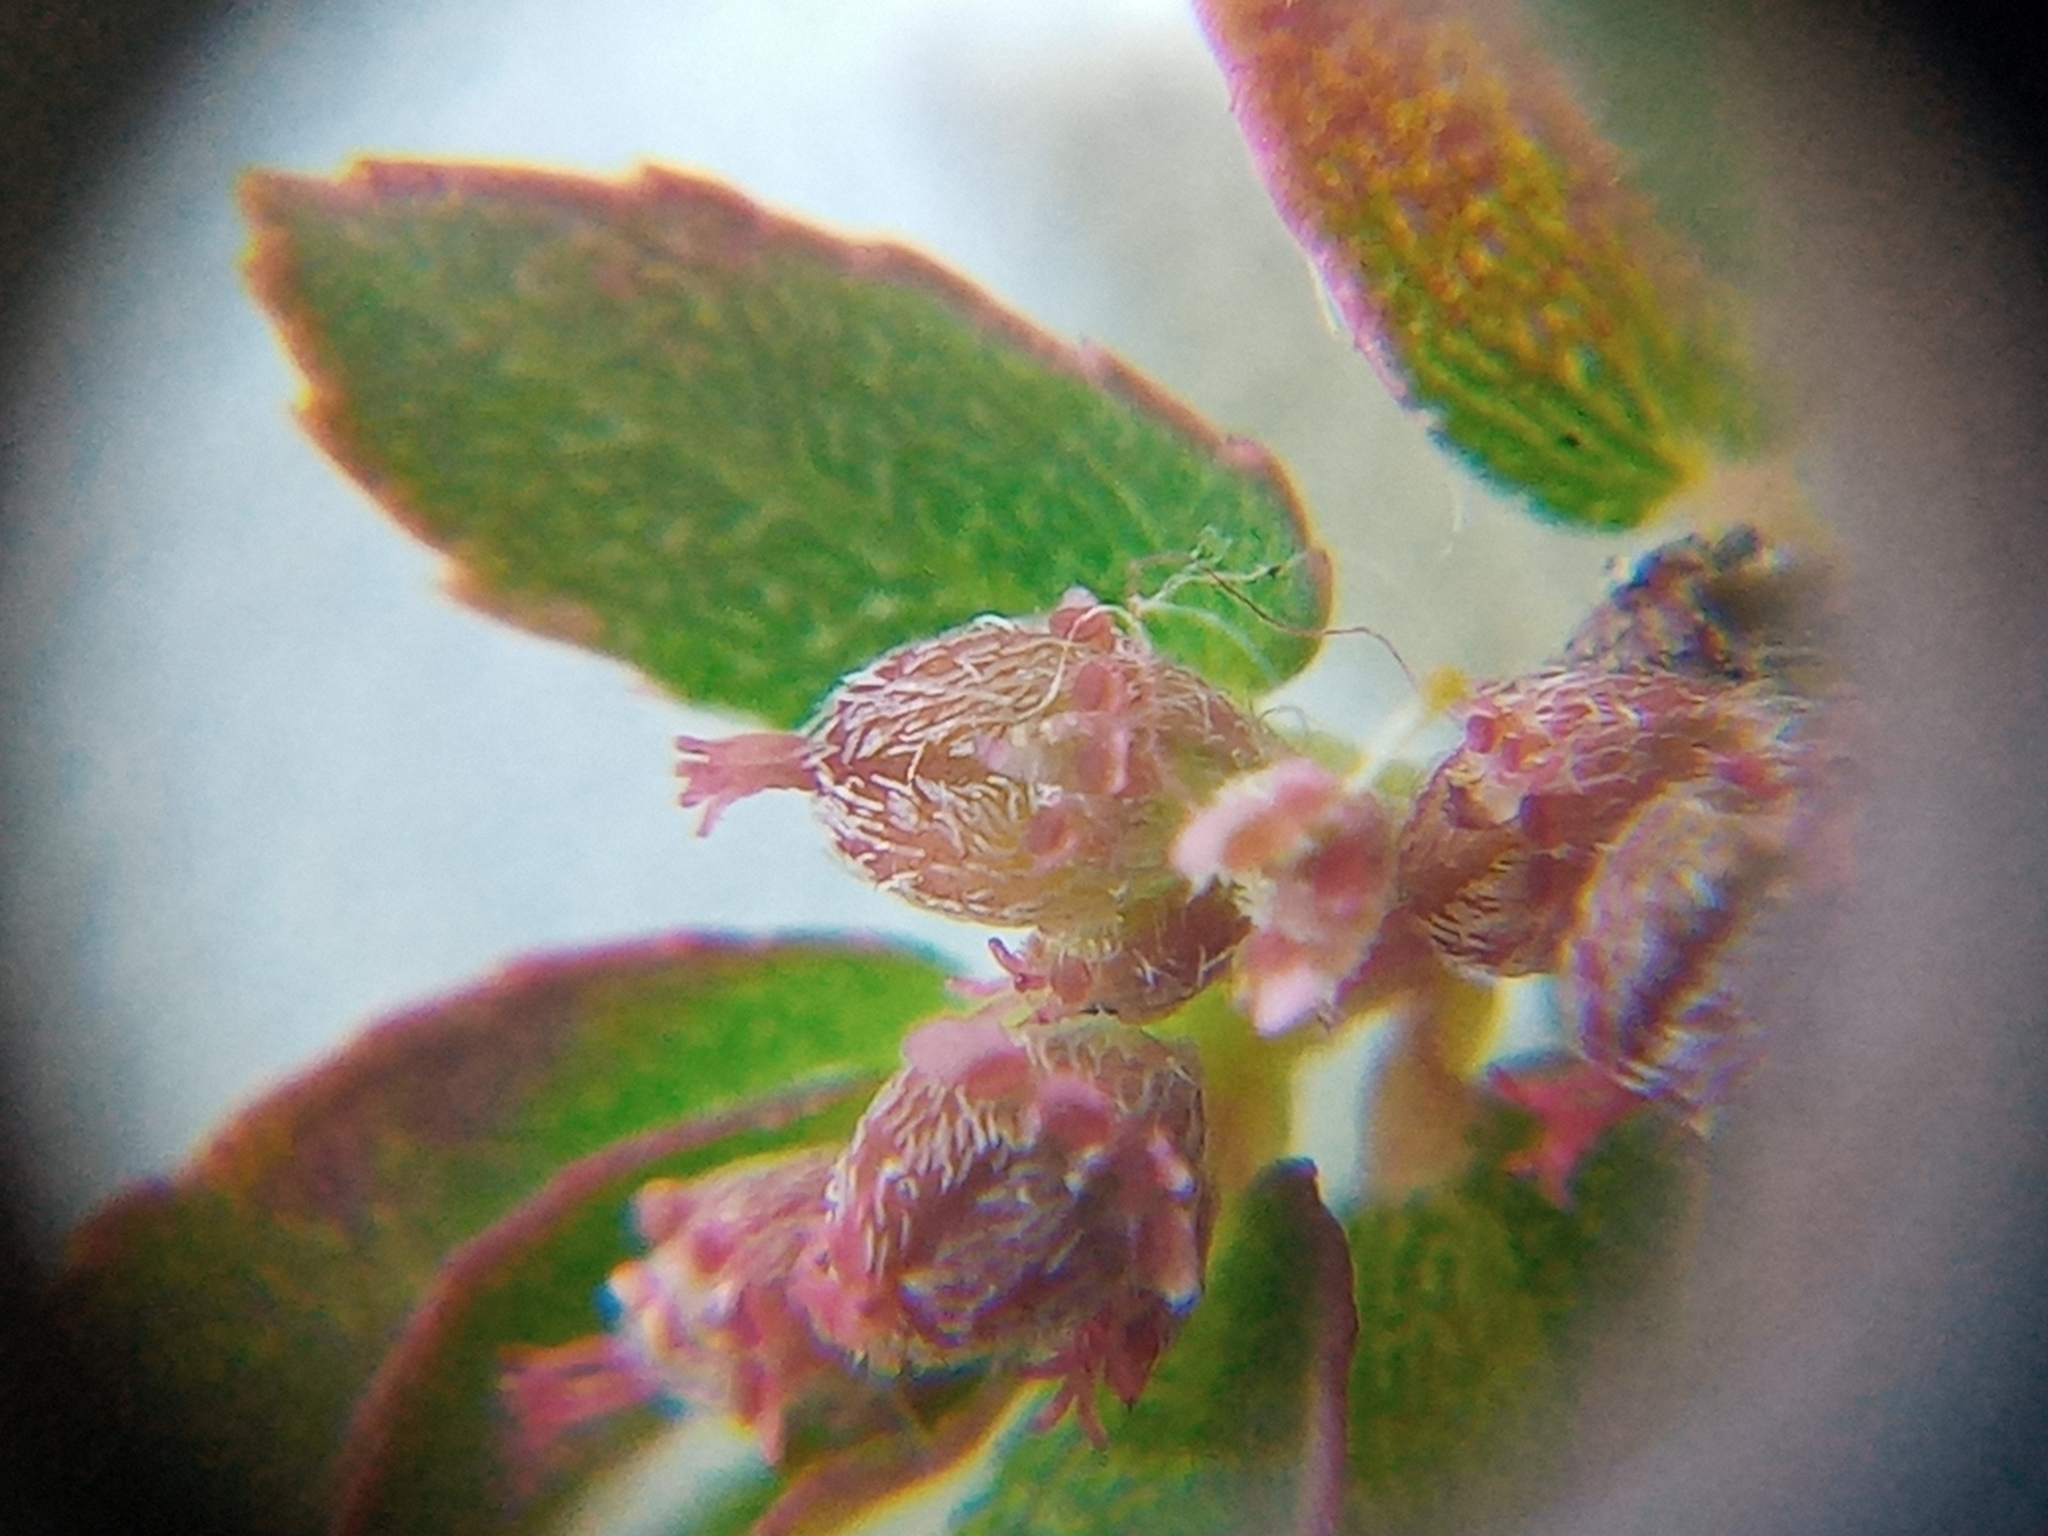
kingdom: Plantae
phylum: Tracheophyta
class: Magnoliopsida
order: Malpighiales
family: Euphorbiaceae
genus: Euphorbia
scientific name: Euphorbia thymifolia
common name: Gulf sandmat
